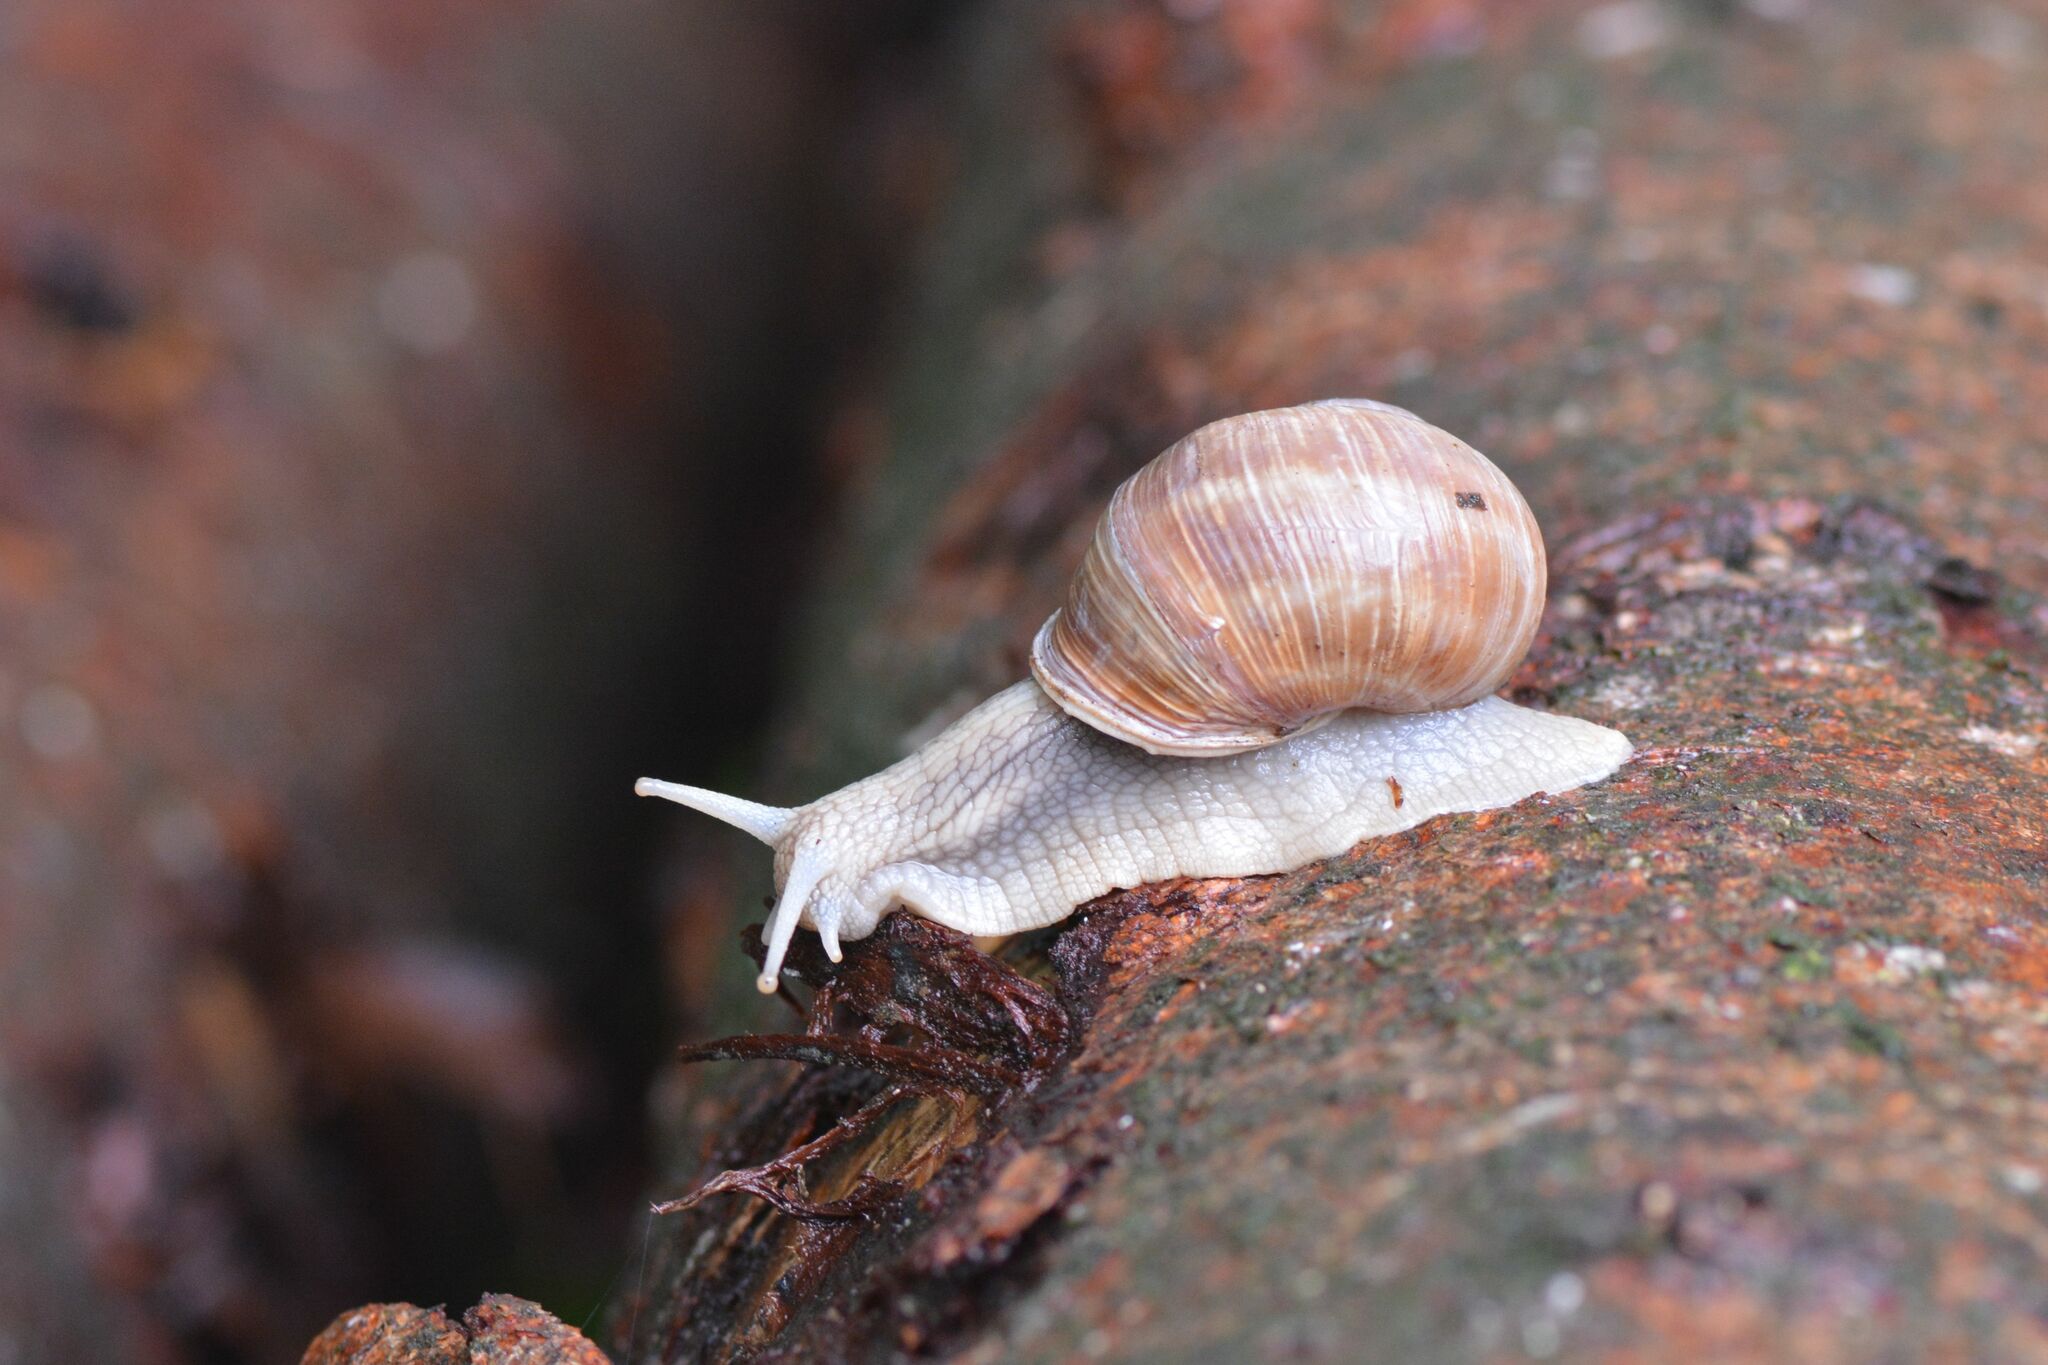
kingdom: Animalia
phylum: Mollusca
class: Gastropoda
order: Stylommatophora
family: Helicidae
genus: Helix
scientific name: Helix pomatia
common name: Roman snail
